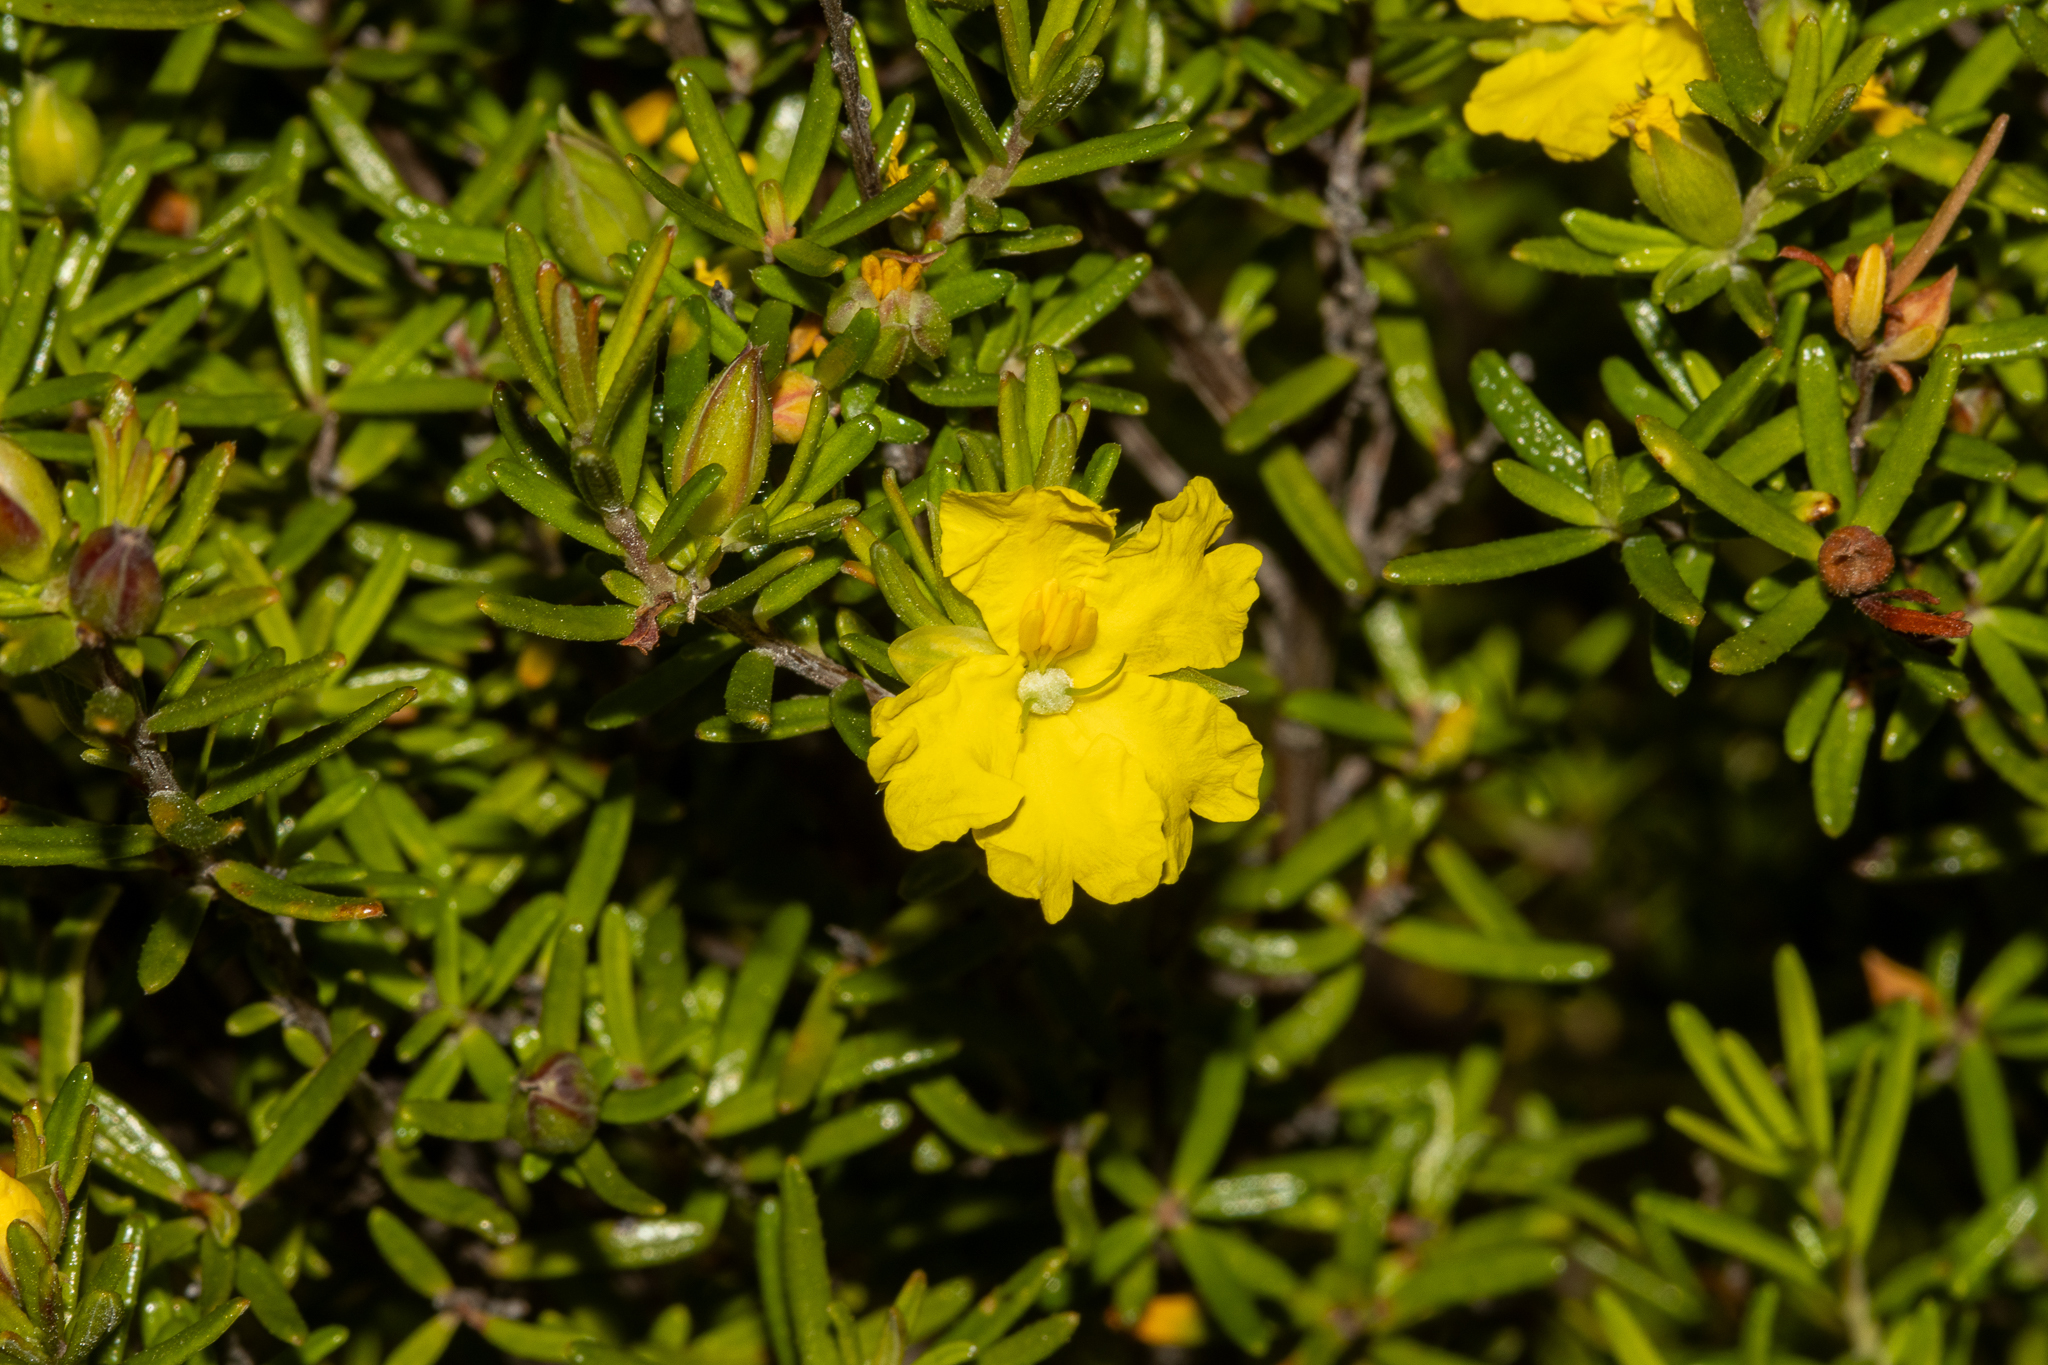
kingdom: Plantae
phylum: Tracheophyta
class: Magnoliopsida
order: Dilleniales
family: Dilleniaceae
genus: Hibbertia
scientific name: Hibbertia riparia
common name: Erect guinea-flower
